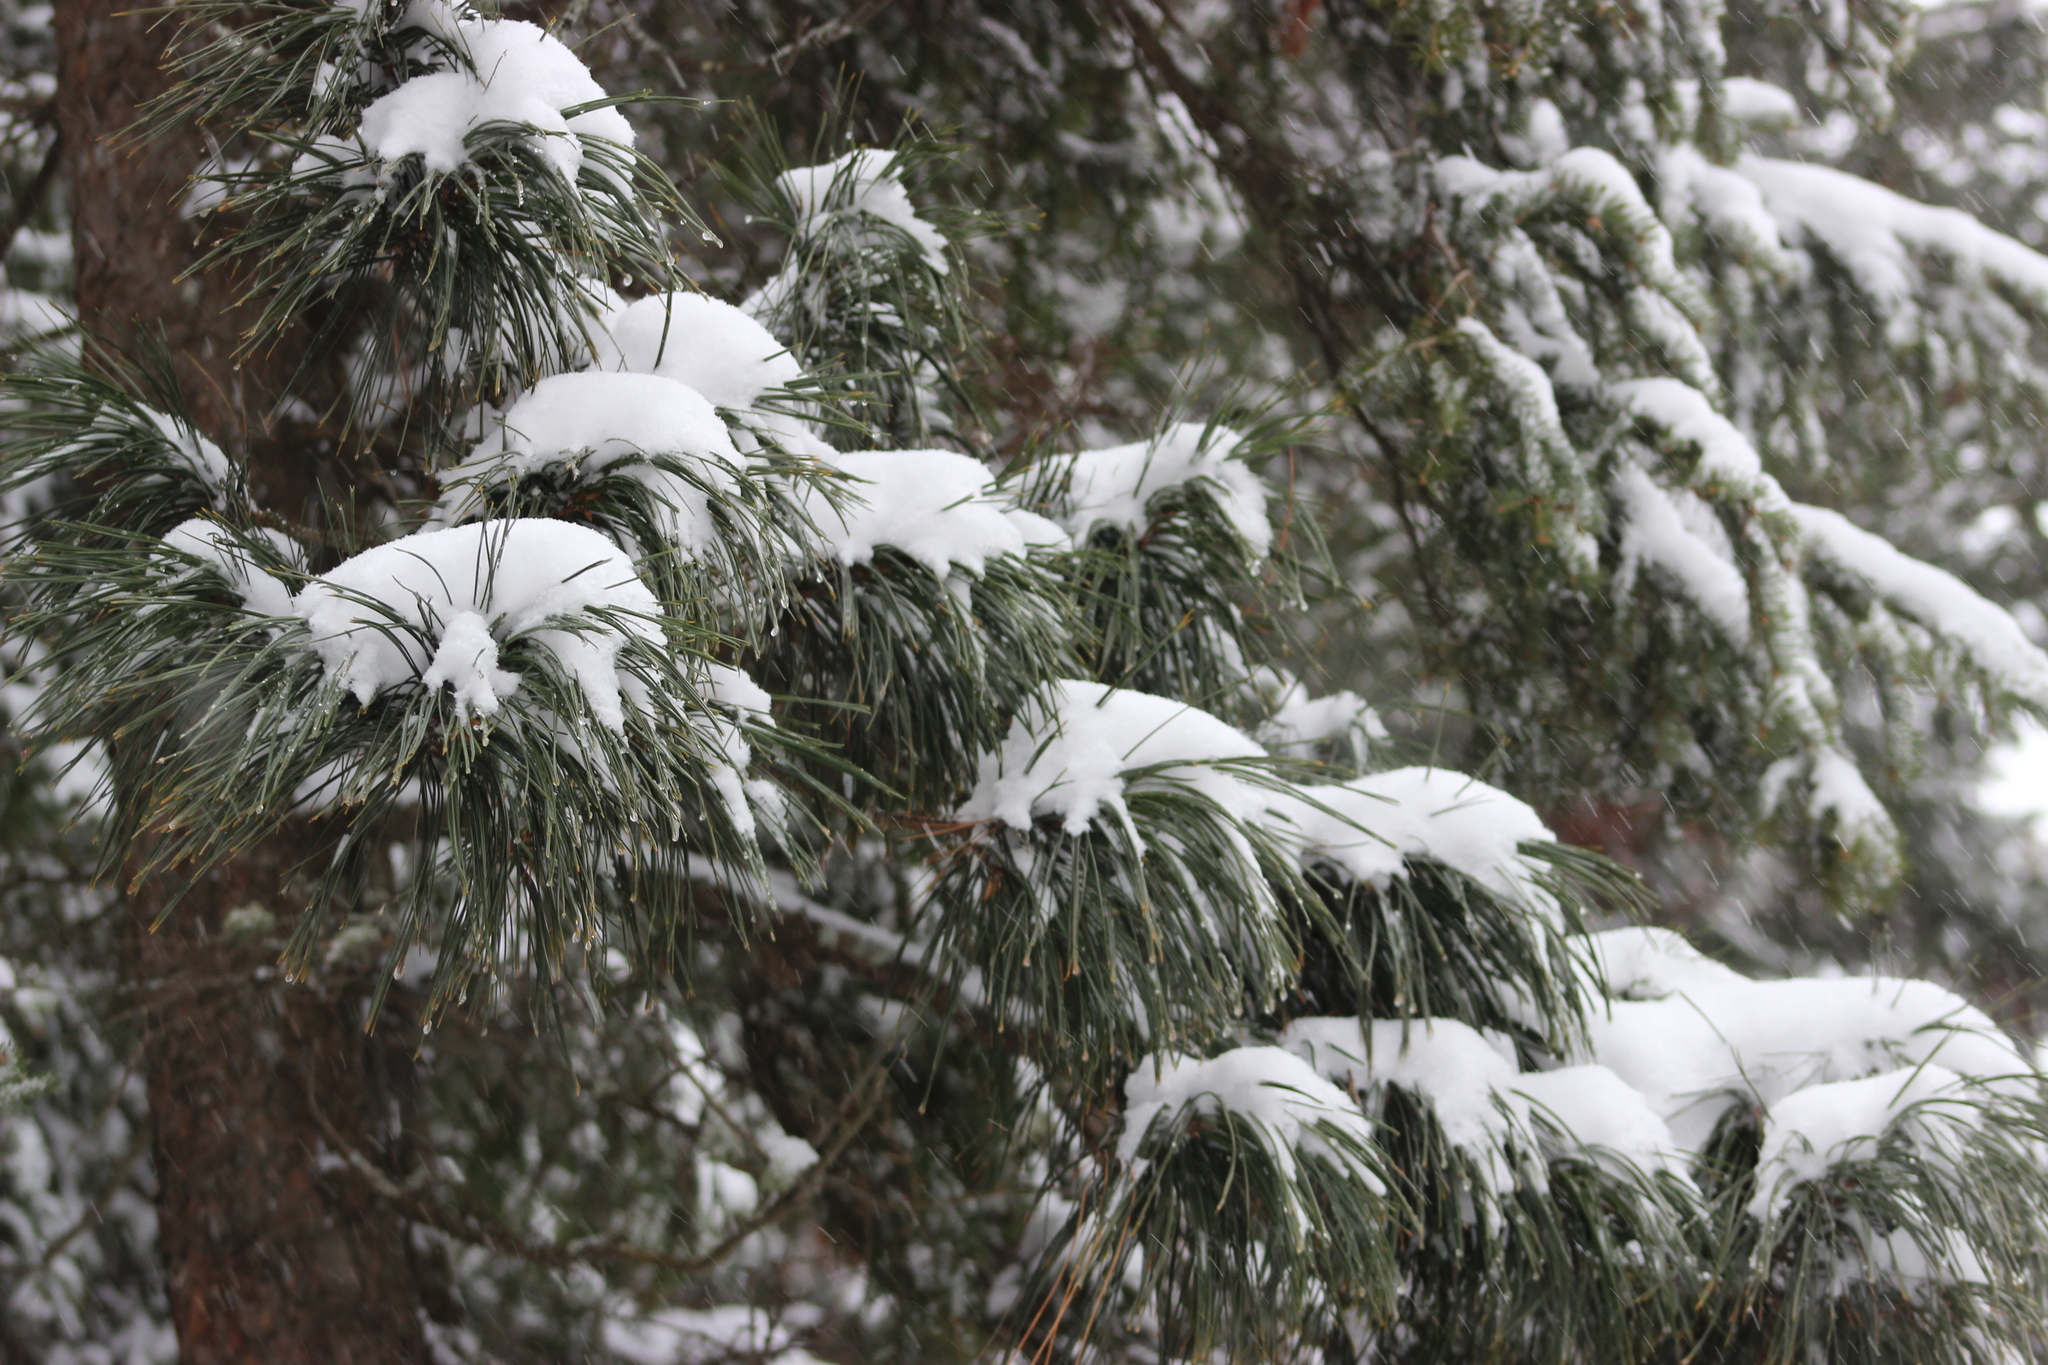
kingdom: Plantae
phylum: Tracheophyta
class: Pinopsida
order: Pinales
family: Pinaceae
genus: Pinus
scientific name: Pinus sibirica
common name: Siberian pine
